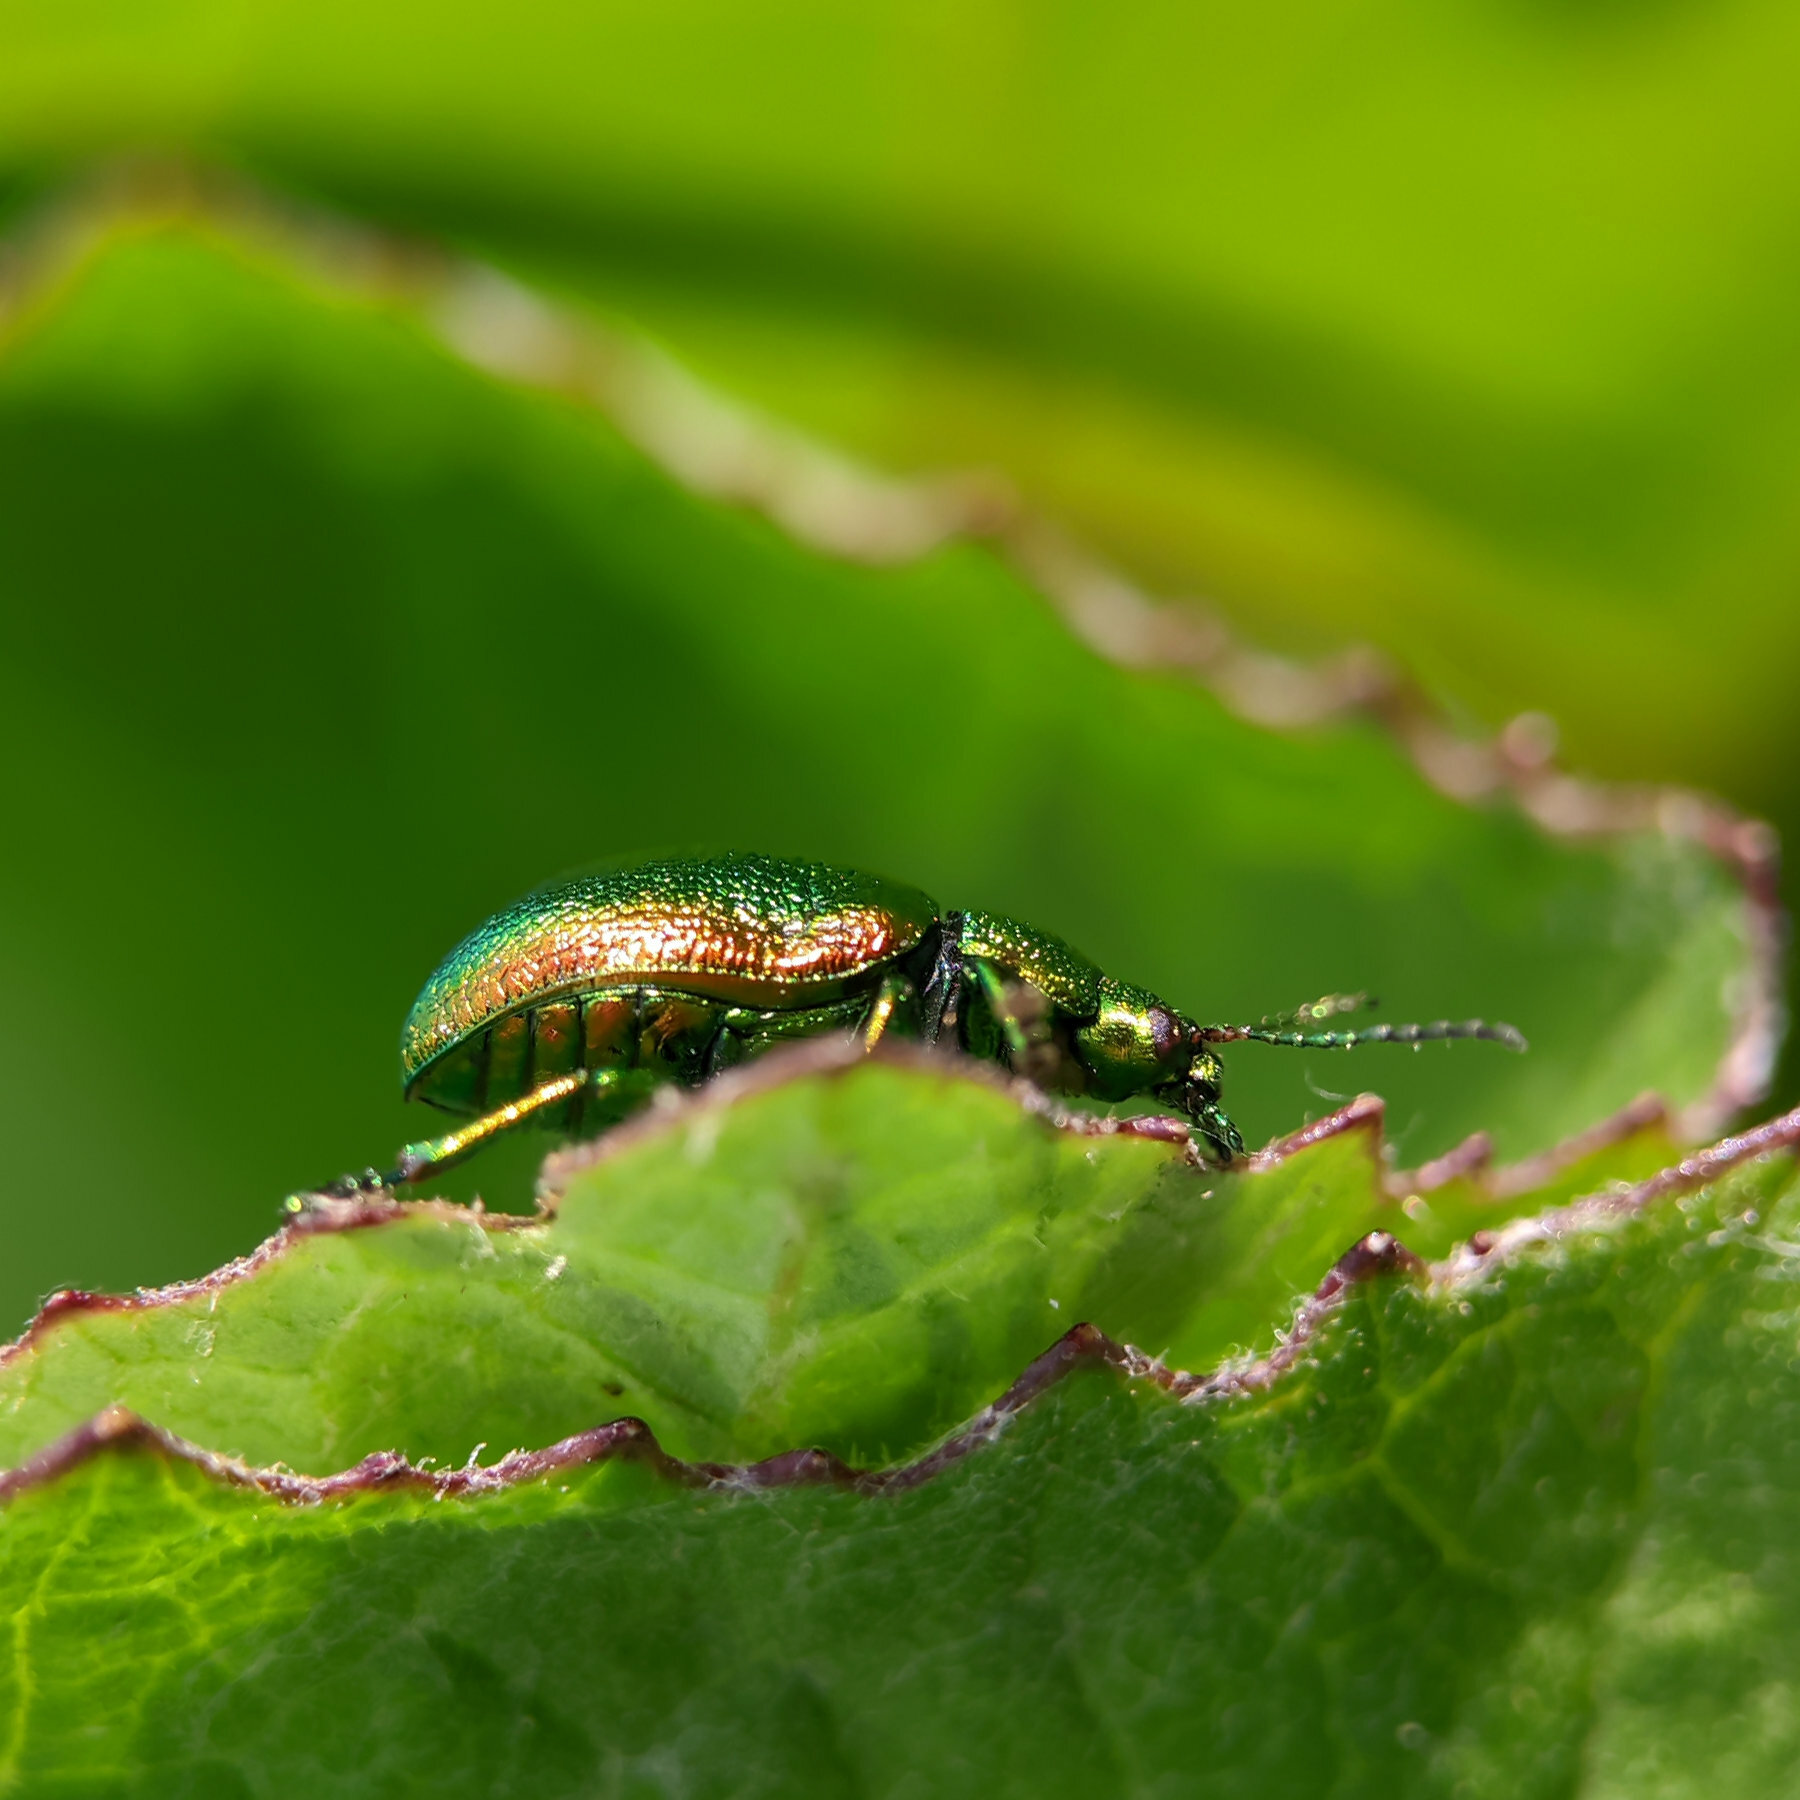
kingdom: Animalia
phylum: Arthropoda
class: Insecta
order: Coleoptera
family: Chrysomelidae
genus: Chrysolina
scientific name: Chrysolina graminis
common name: Tansey beetle
